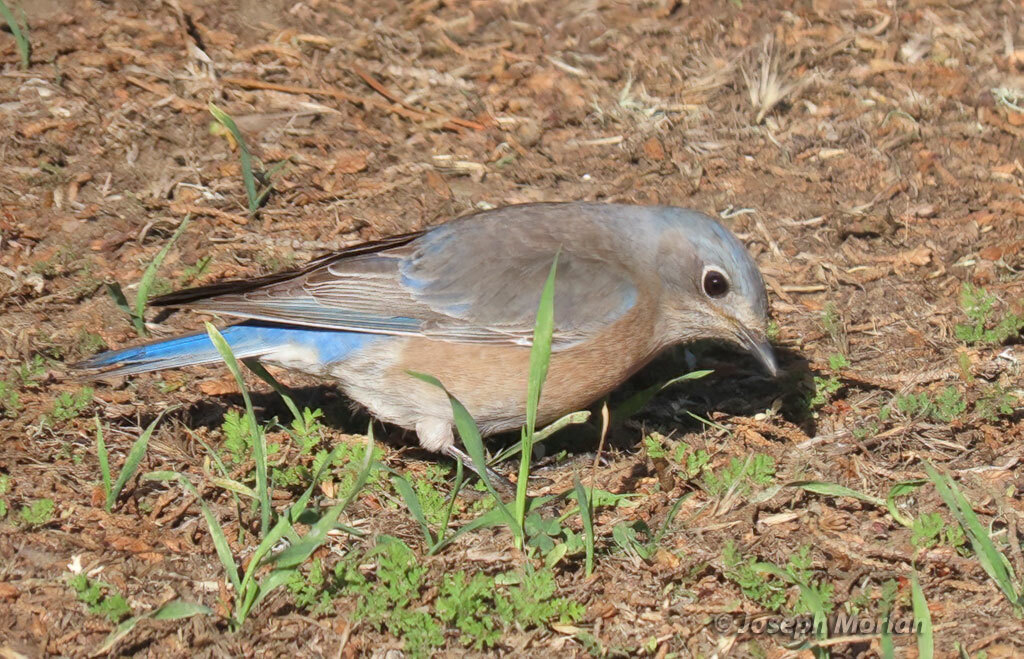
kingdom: Animalia
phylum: Chordata
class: Aves
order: Passeriformes
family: Turdidae
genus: Sialia
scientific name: Sialia mexicana
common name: Western bluebird
